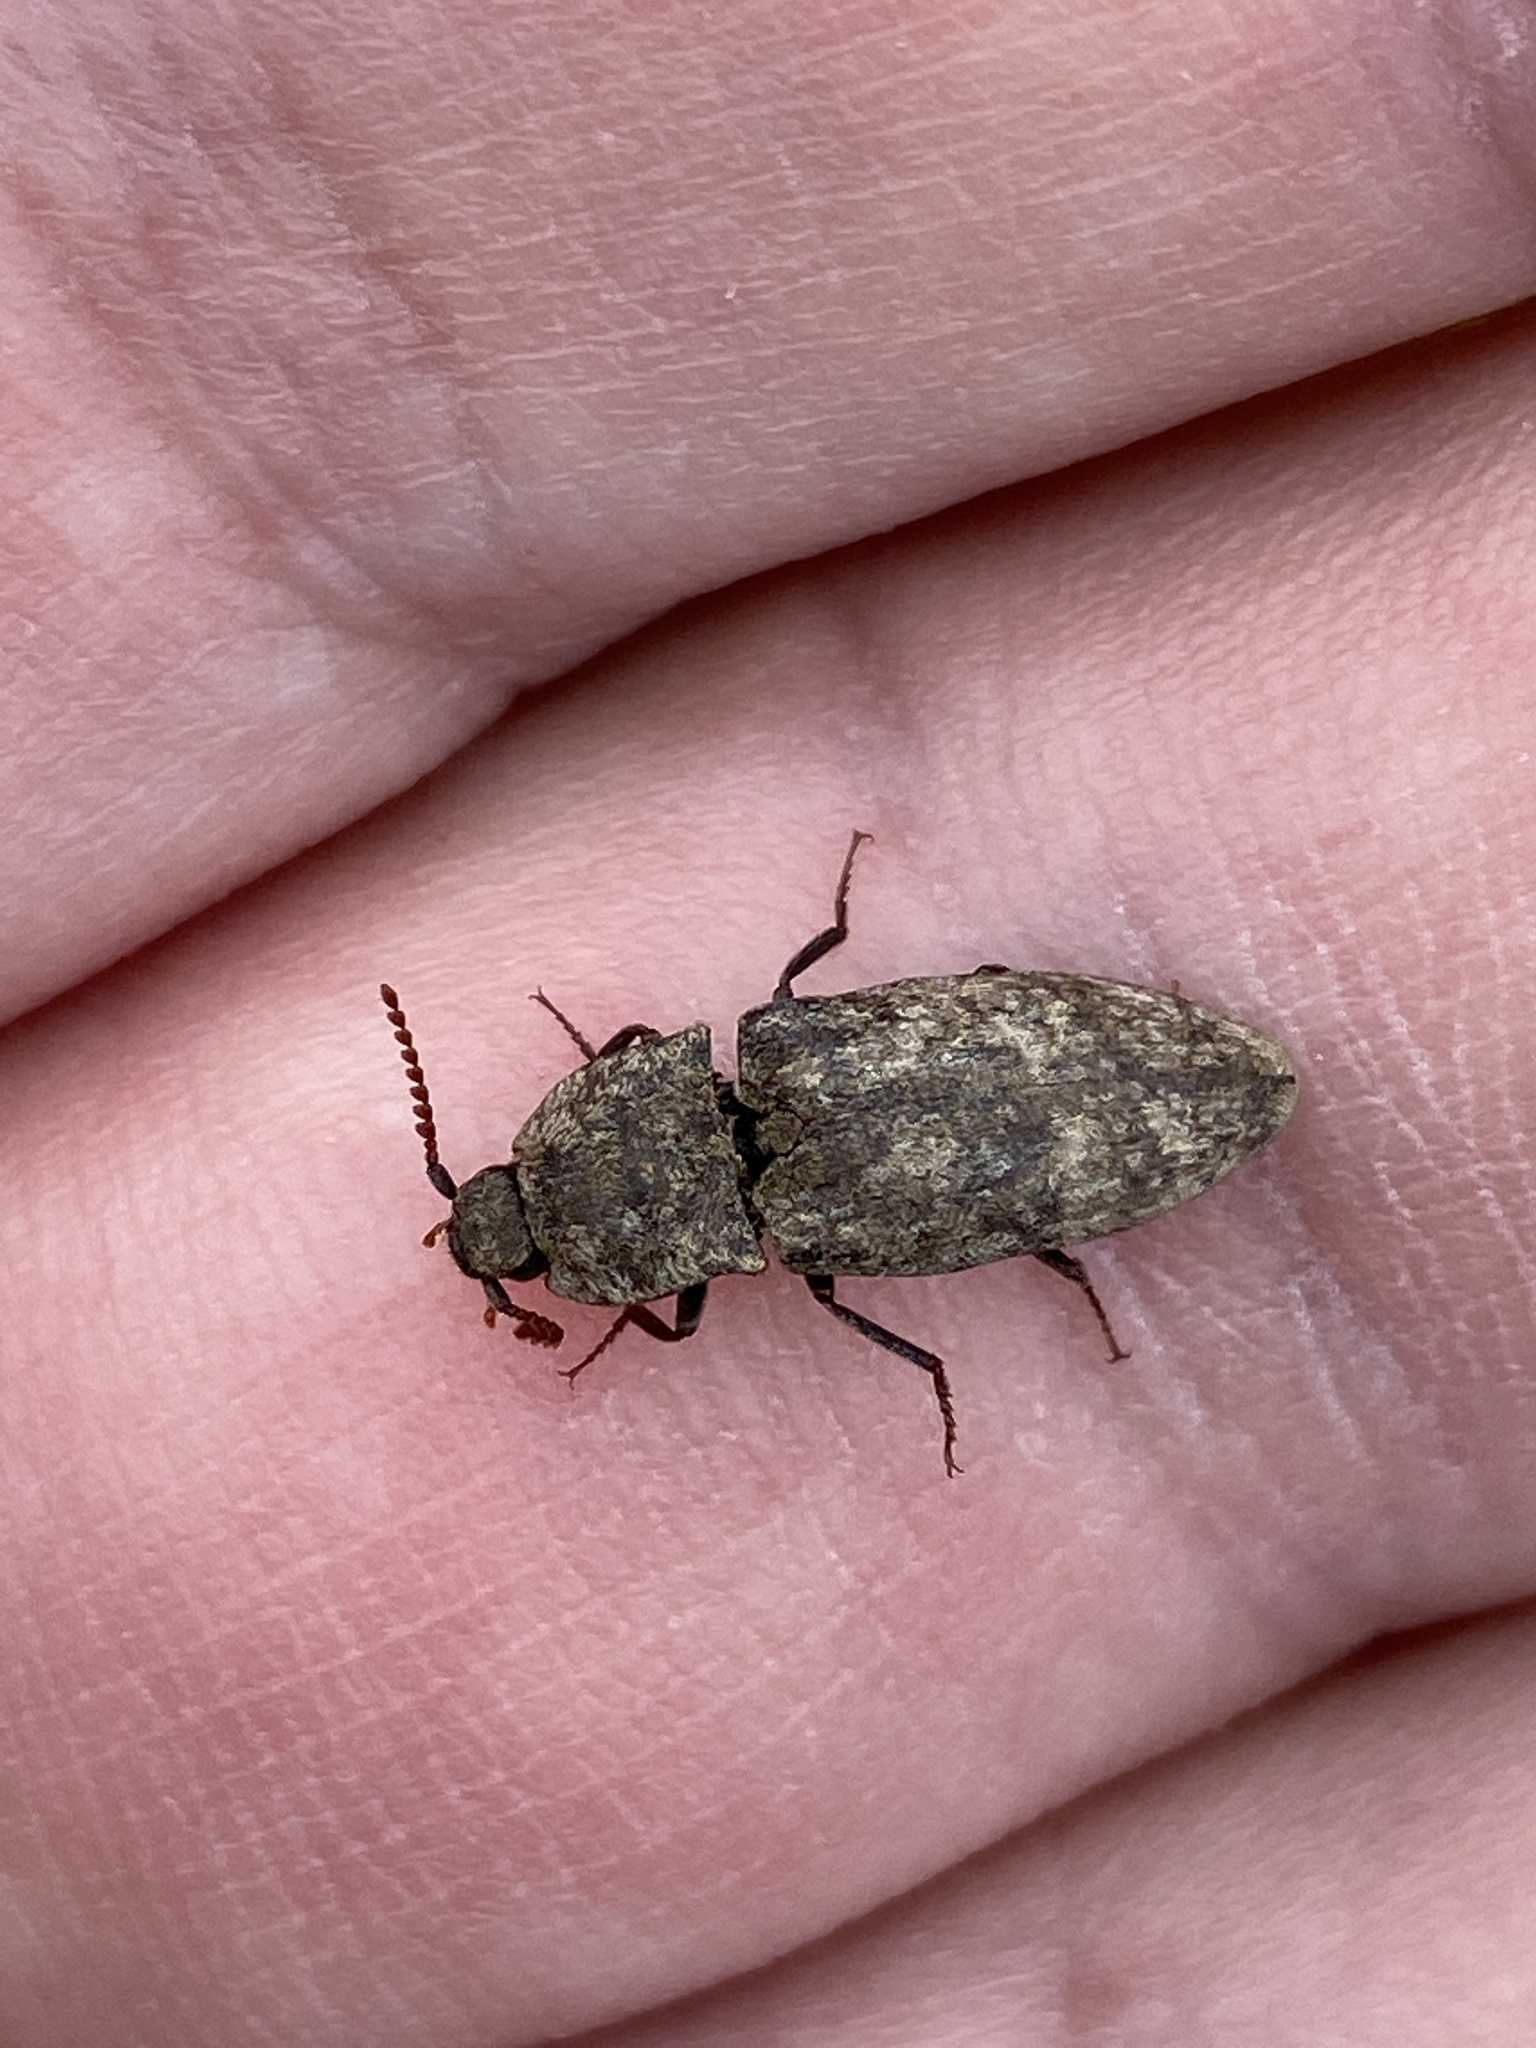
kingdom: Animalia
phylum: Arthropoda
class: Insecta
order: Coleoptera
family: Elateridae
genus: Agrypnus
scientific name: Agrypnus murinus
